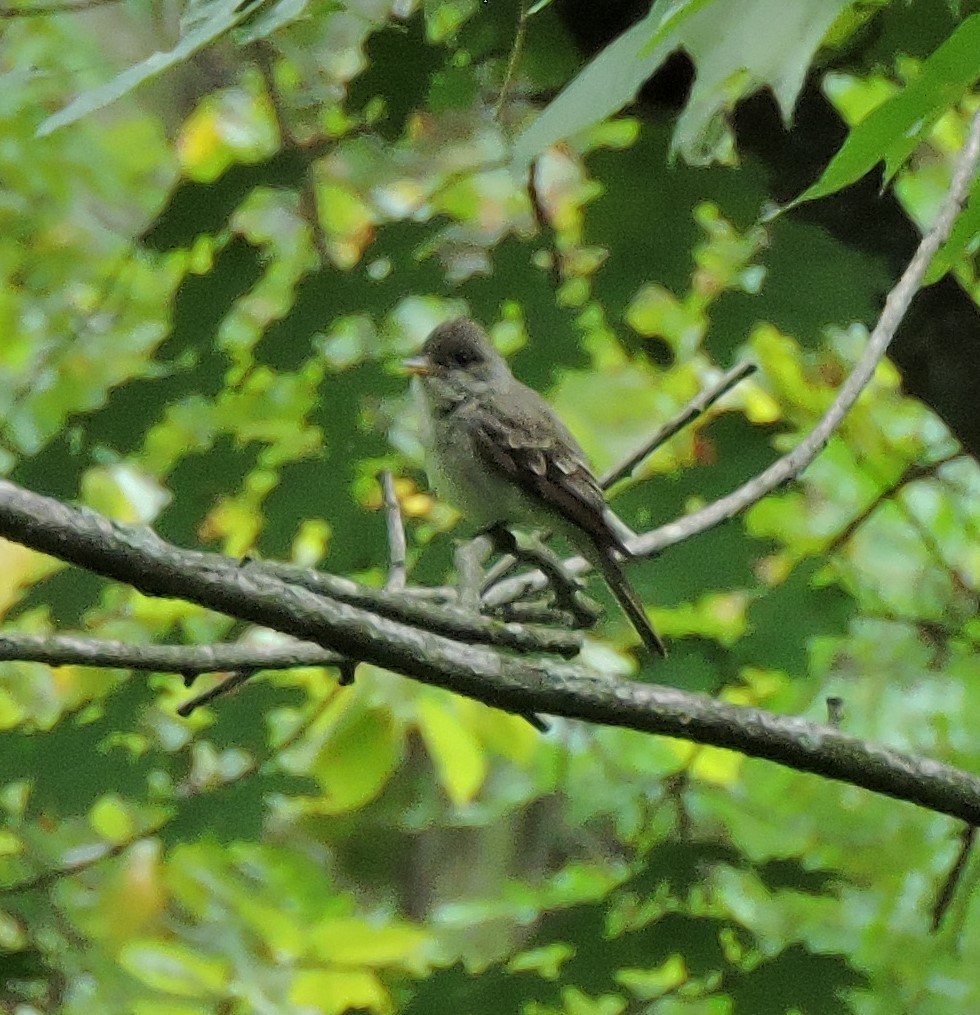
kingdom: Animalia
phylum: Chordata
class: Aves
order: Passeriformes
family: Tyrannidae
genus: Contopus
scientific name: Contopus virens
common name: Eastern wood-pewee
